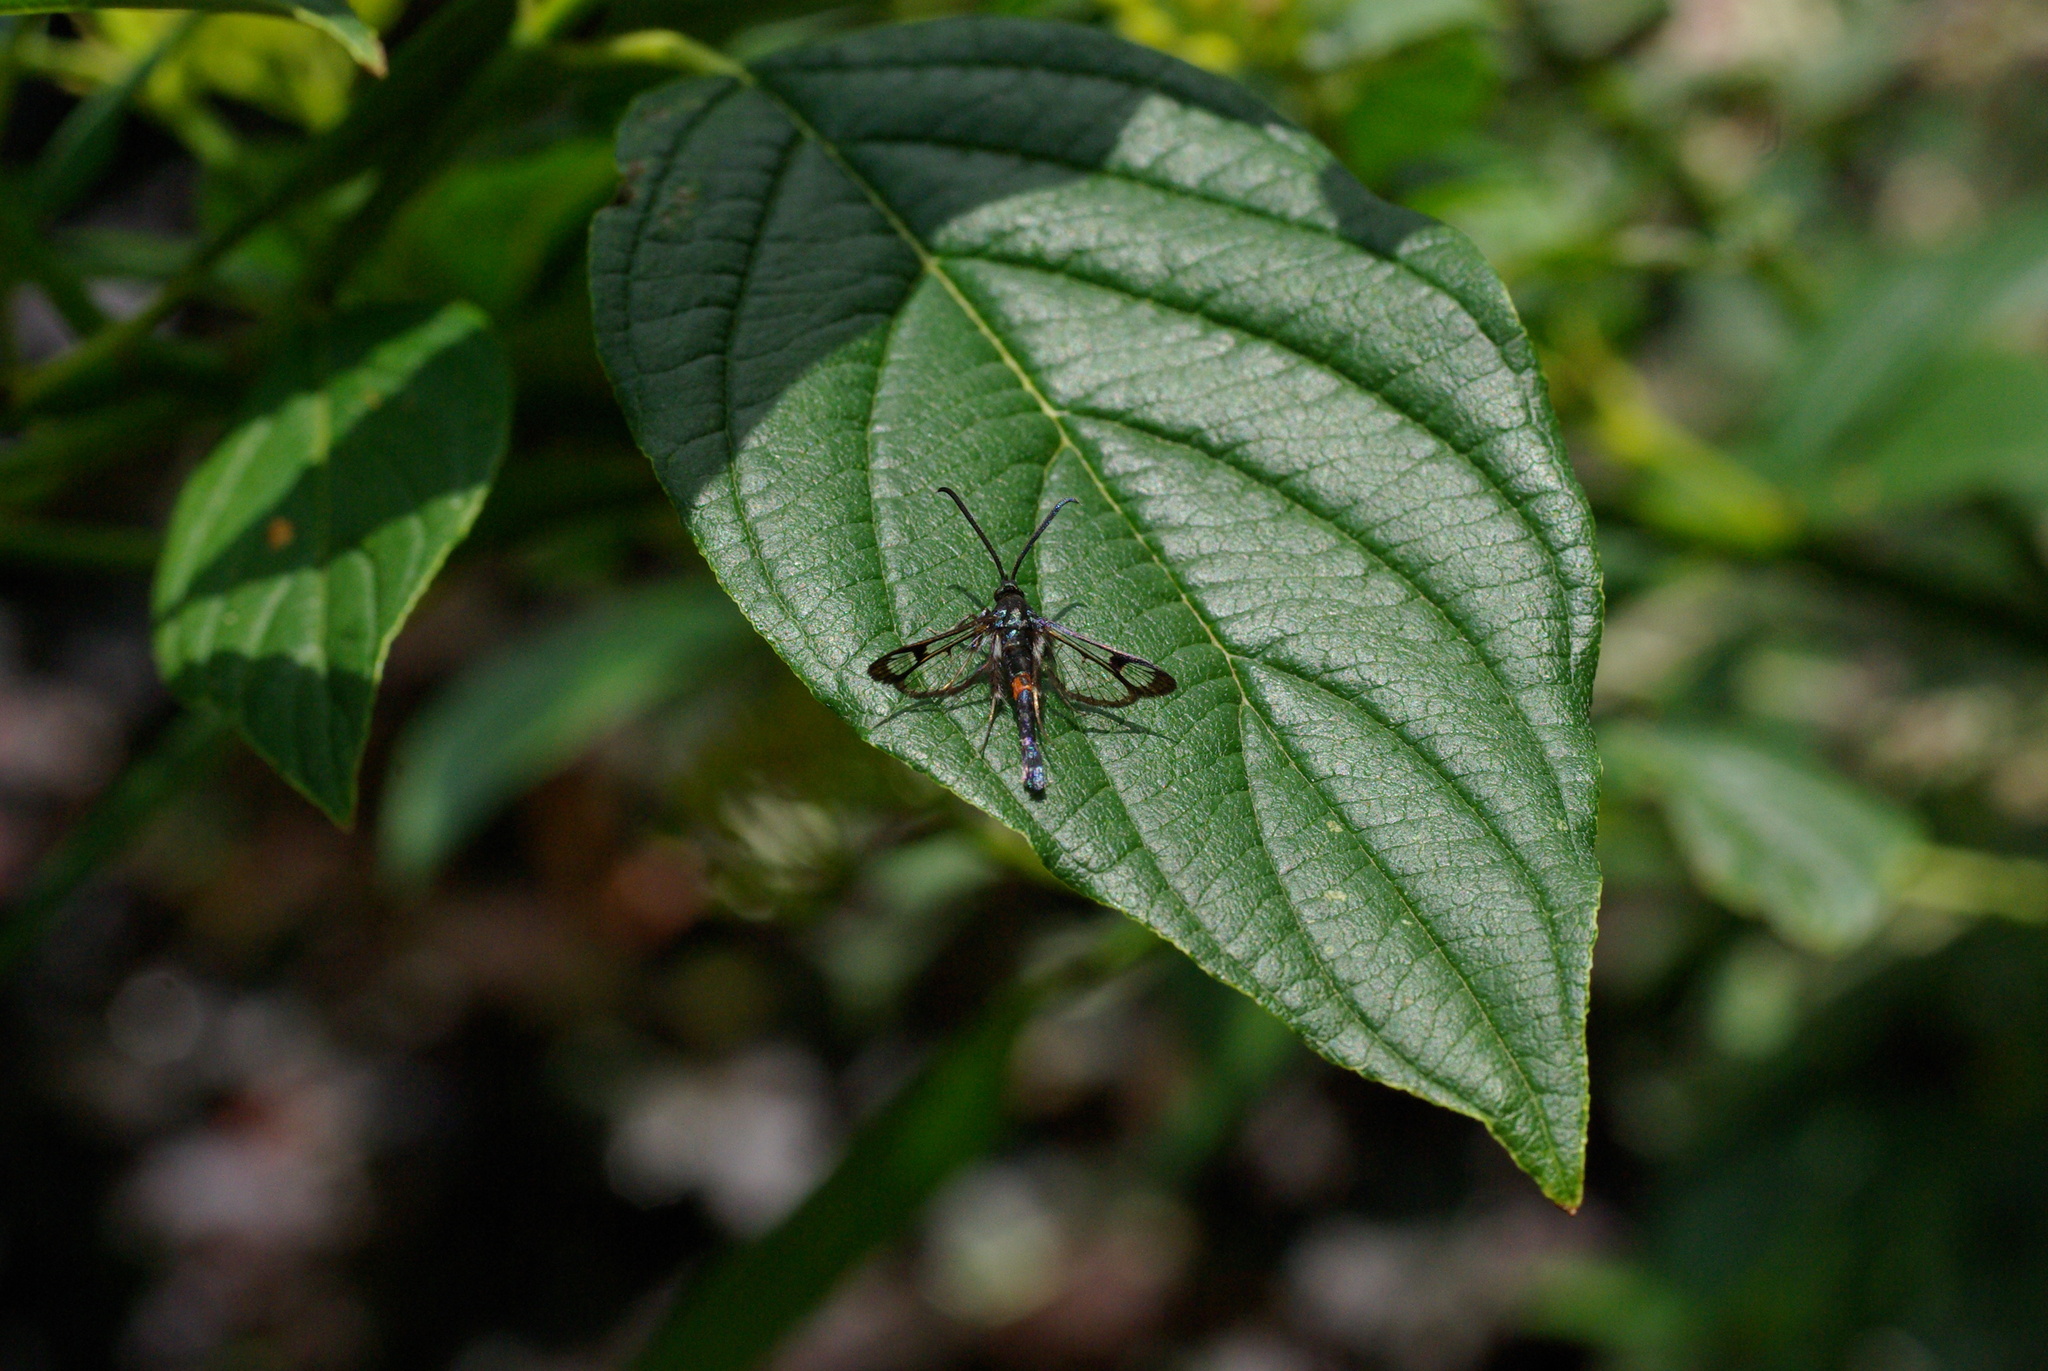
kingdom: Animalia
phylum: Arthropoda
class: Insecta
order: Lepidoptera
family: Sesiidae
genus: Synanthedon
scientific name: Synanthedon myopaeformis
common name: Red-belted clearwing
